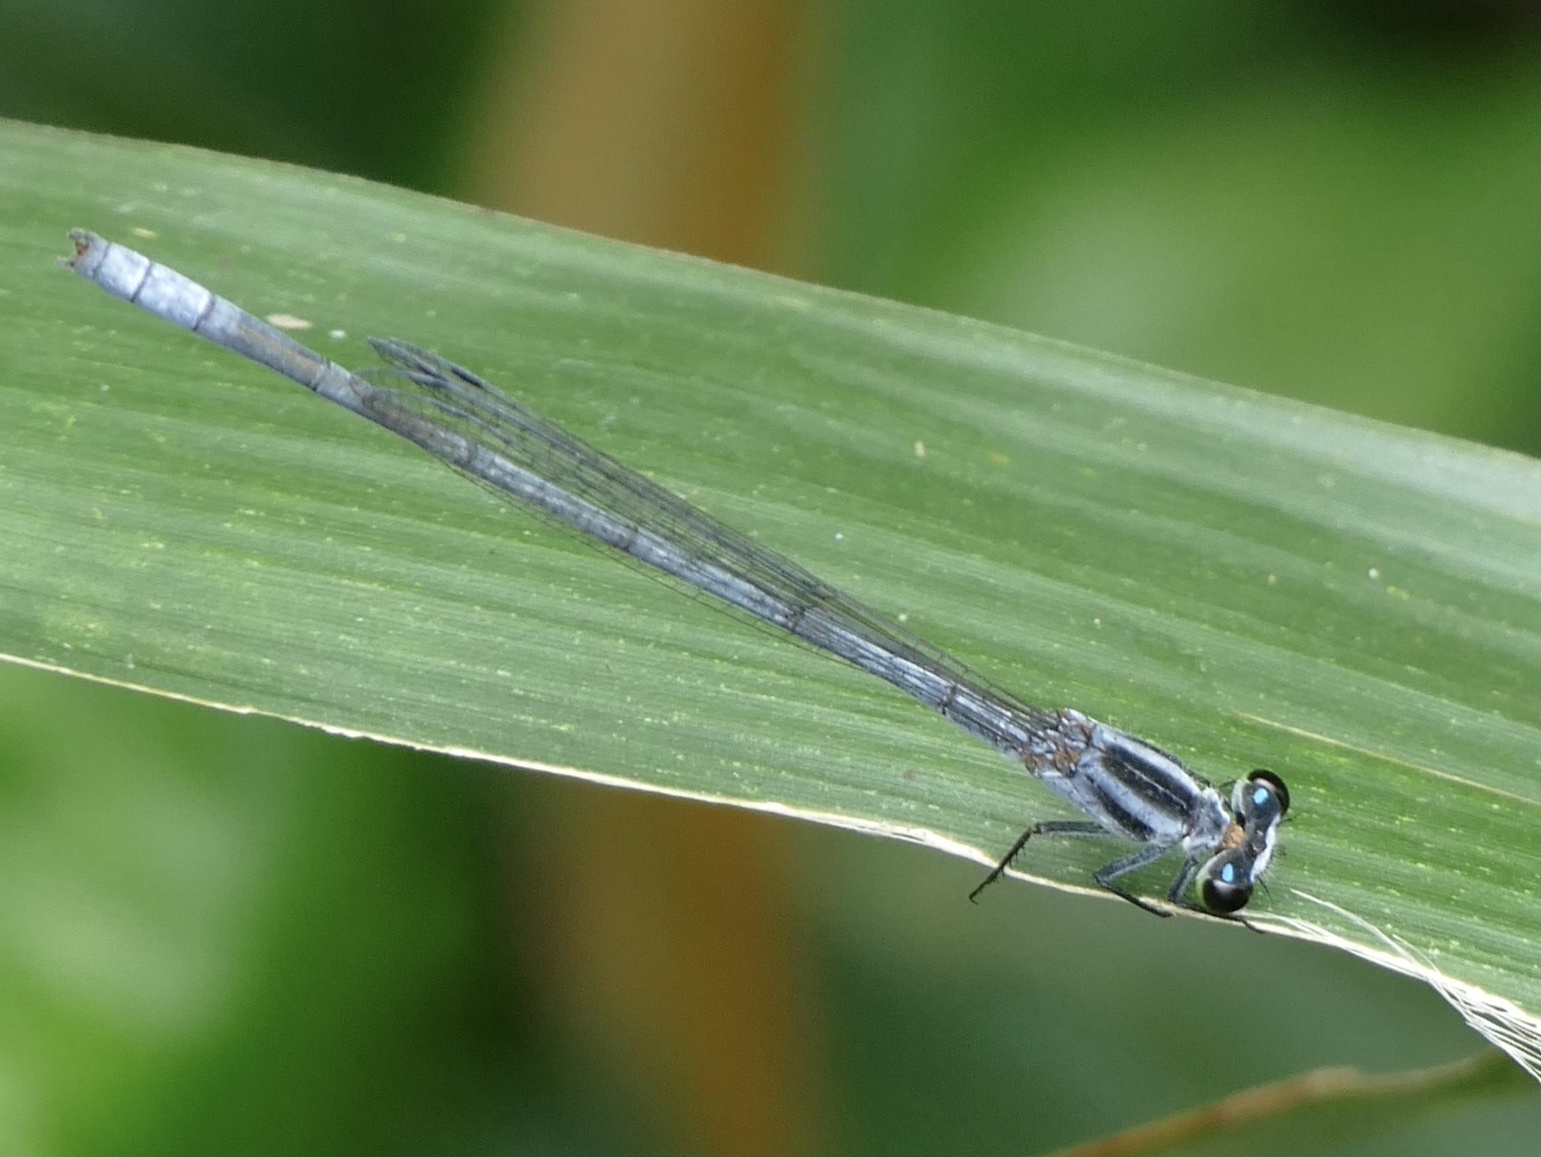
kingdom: Animalia
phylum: Arthropoda
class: Insecta
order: Odonata
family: Coenagrionidae
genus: Pseudagrion
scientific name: Pseudagrion kersteni
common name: Powder-faced sprite
